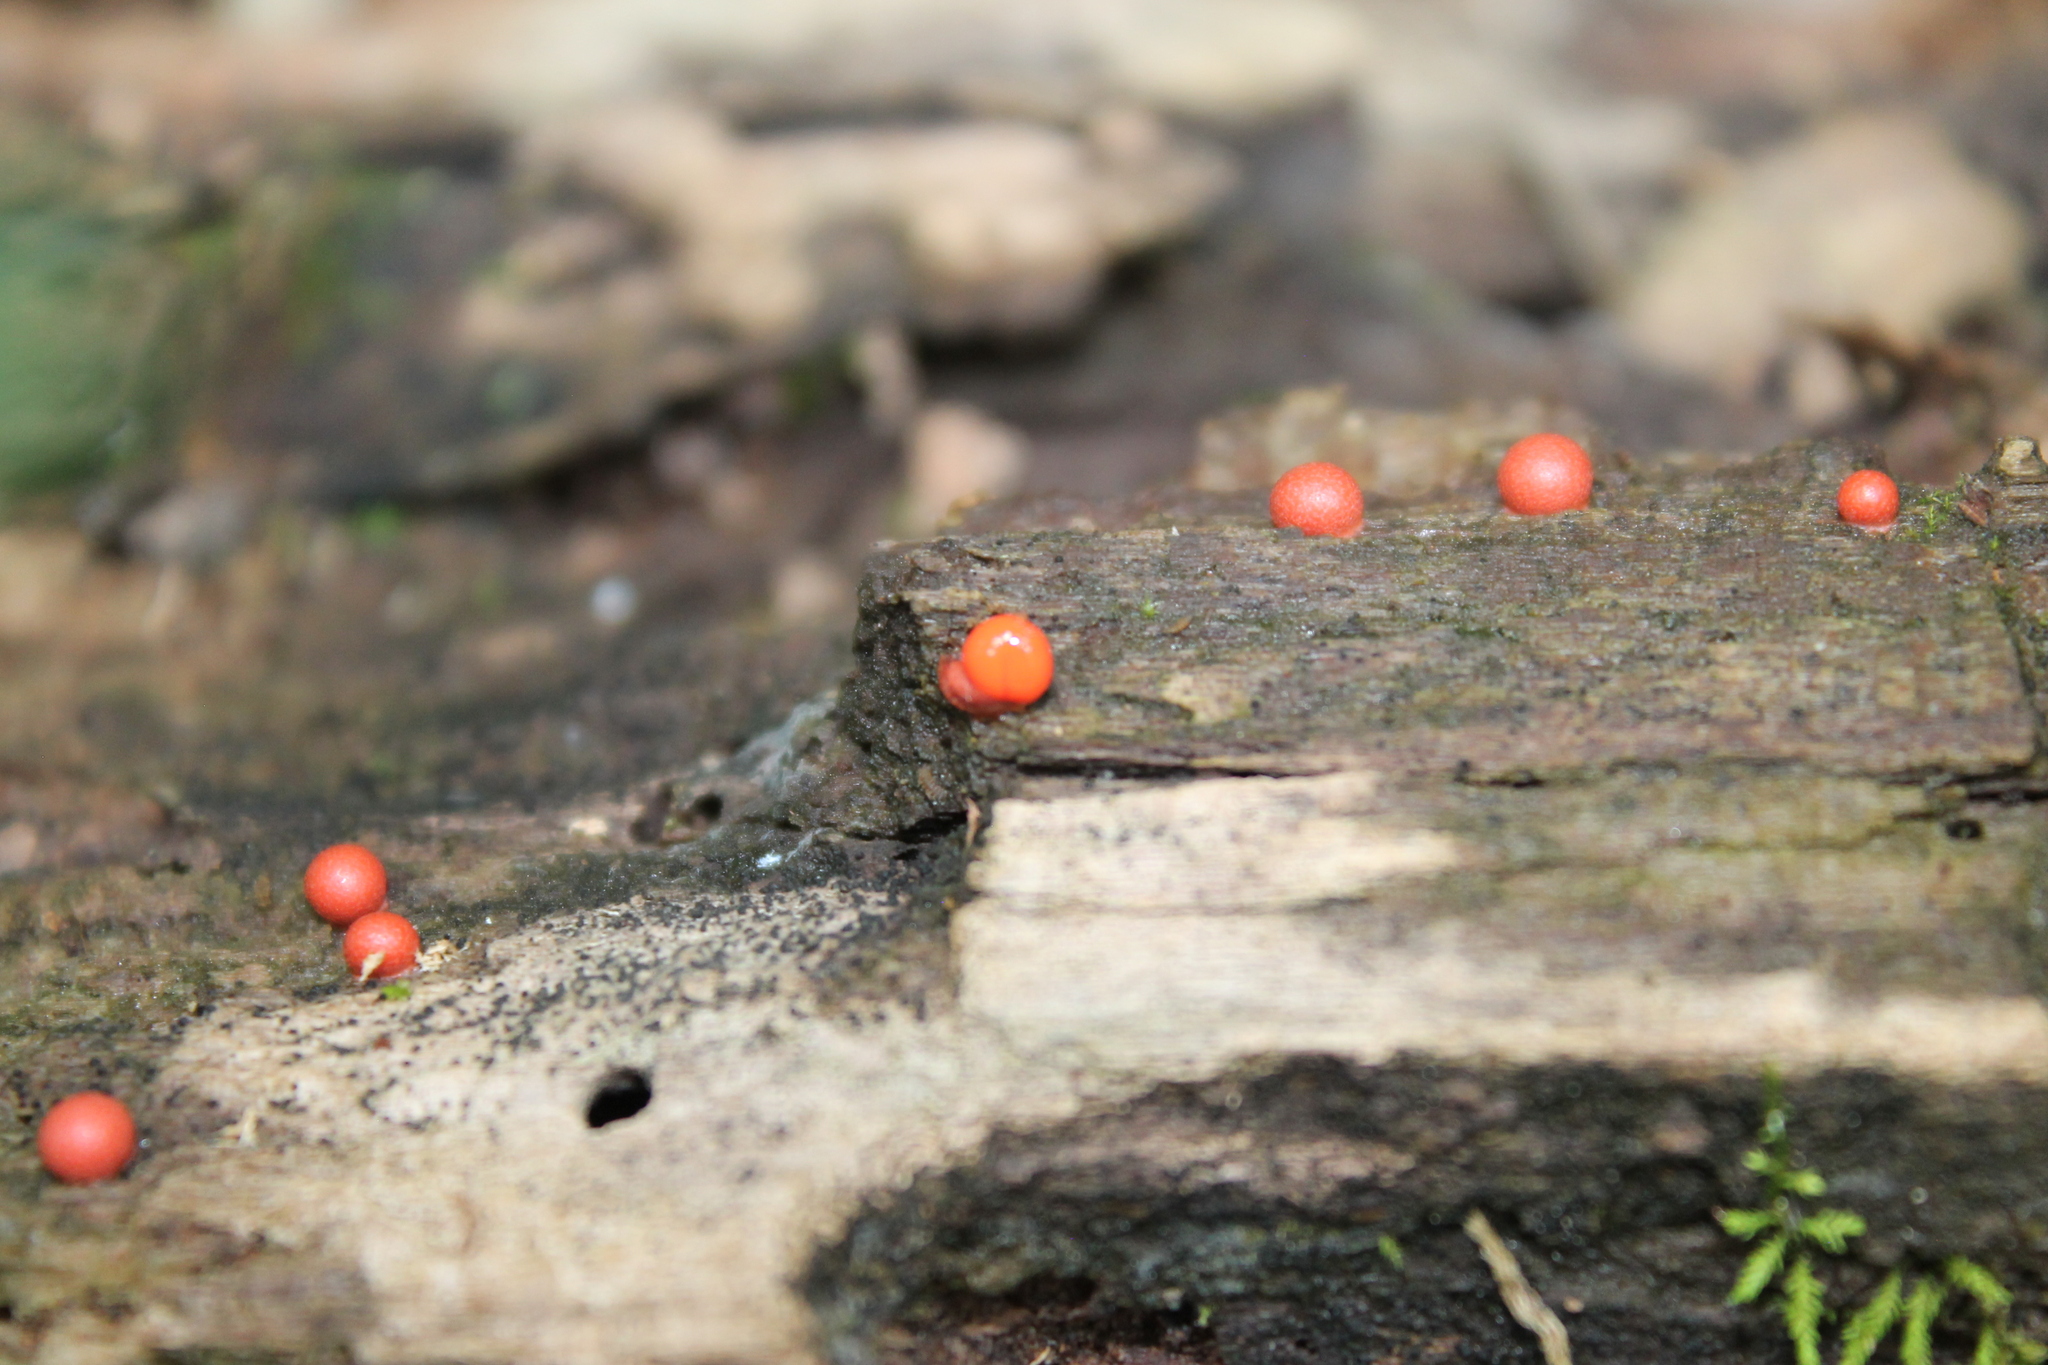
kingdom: Protozoa
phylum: Mycetozoa
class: Myxomycetes
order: Cribrariales
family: Tubiferaceae
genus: Lycogala
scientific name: Lycogala epidendrum
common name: Wolf's milk
